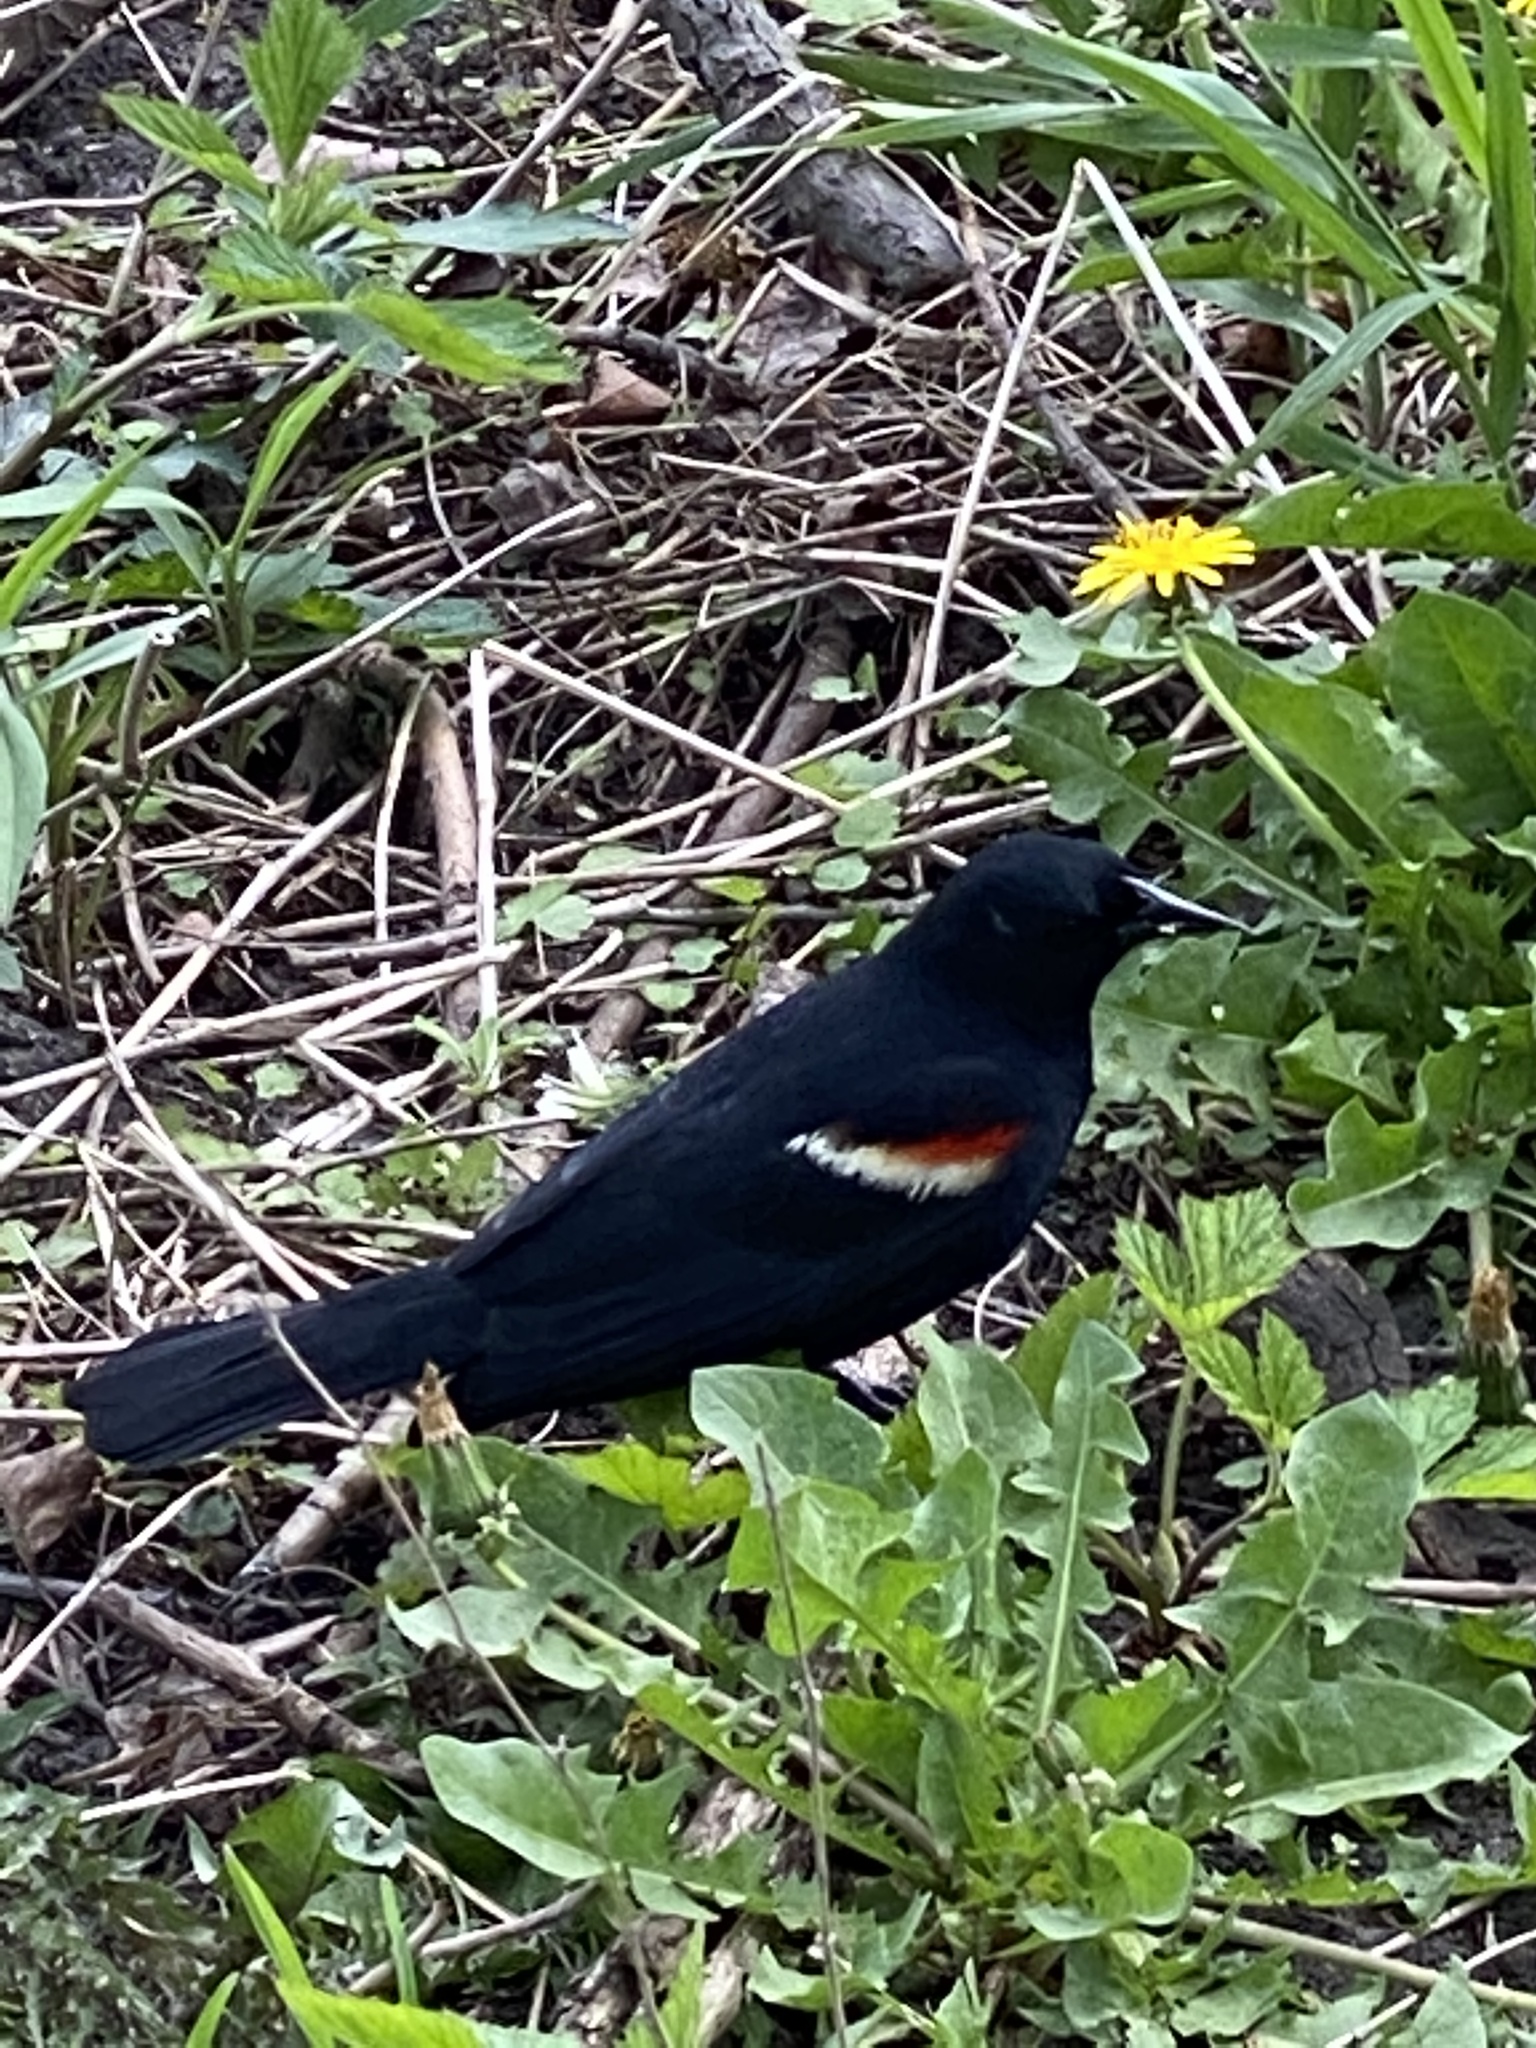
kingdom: Animalia
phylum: Chordata
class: Aves
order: Passeriformes
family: Icteridae
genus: Agelaius
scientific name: Agelaius phoeniceus
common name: Red-winged blackbird
